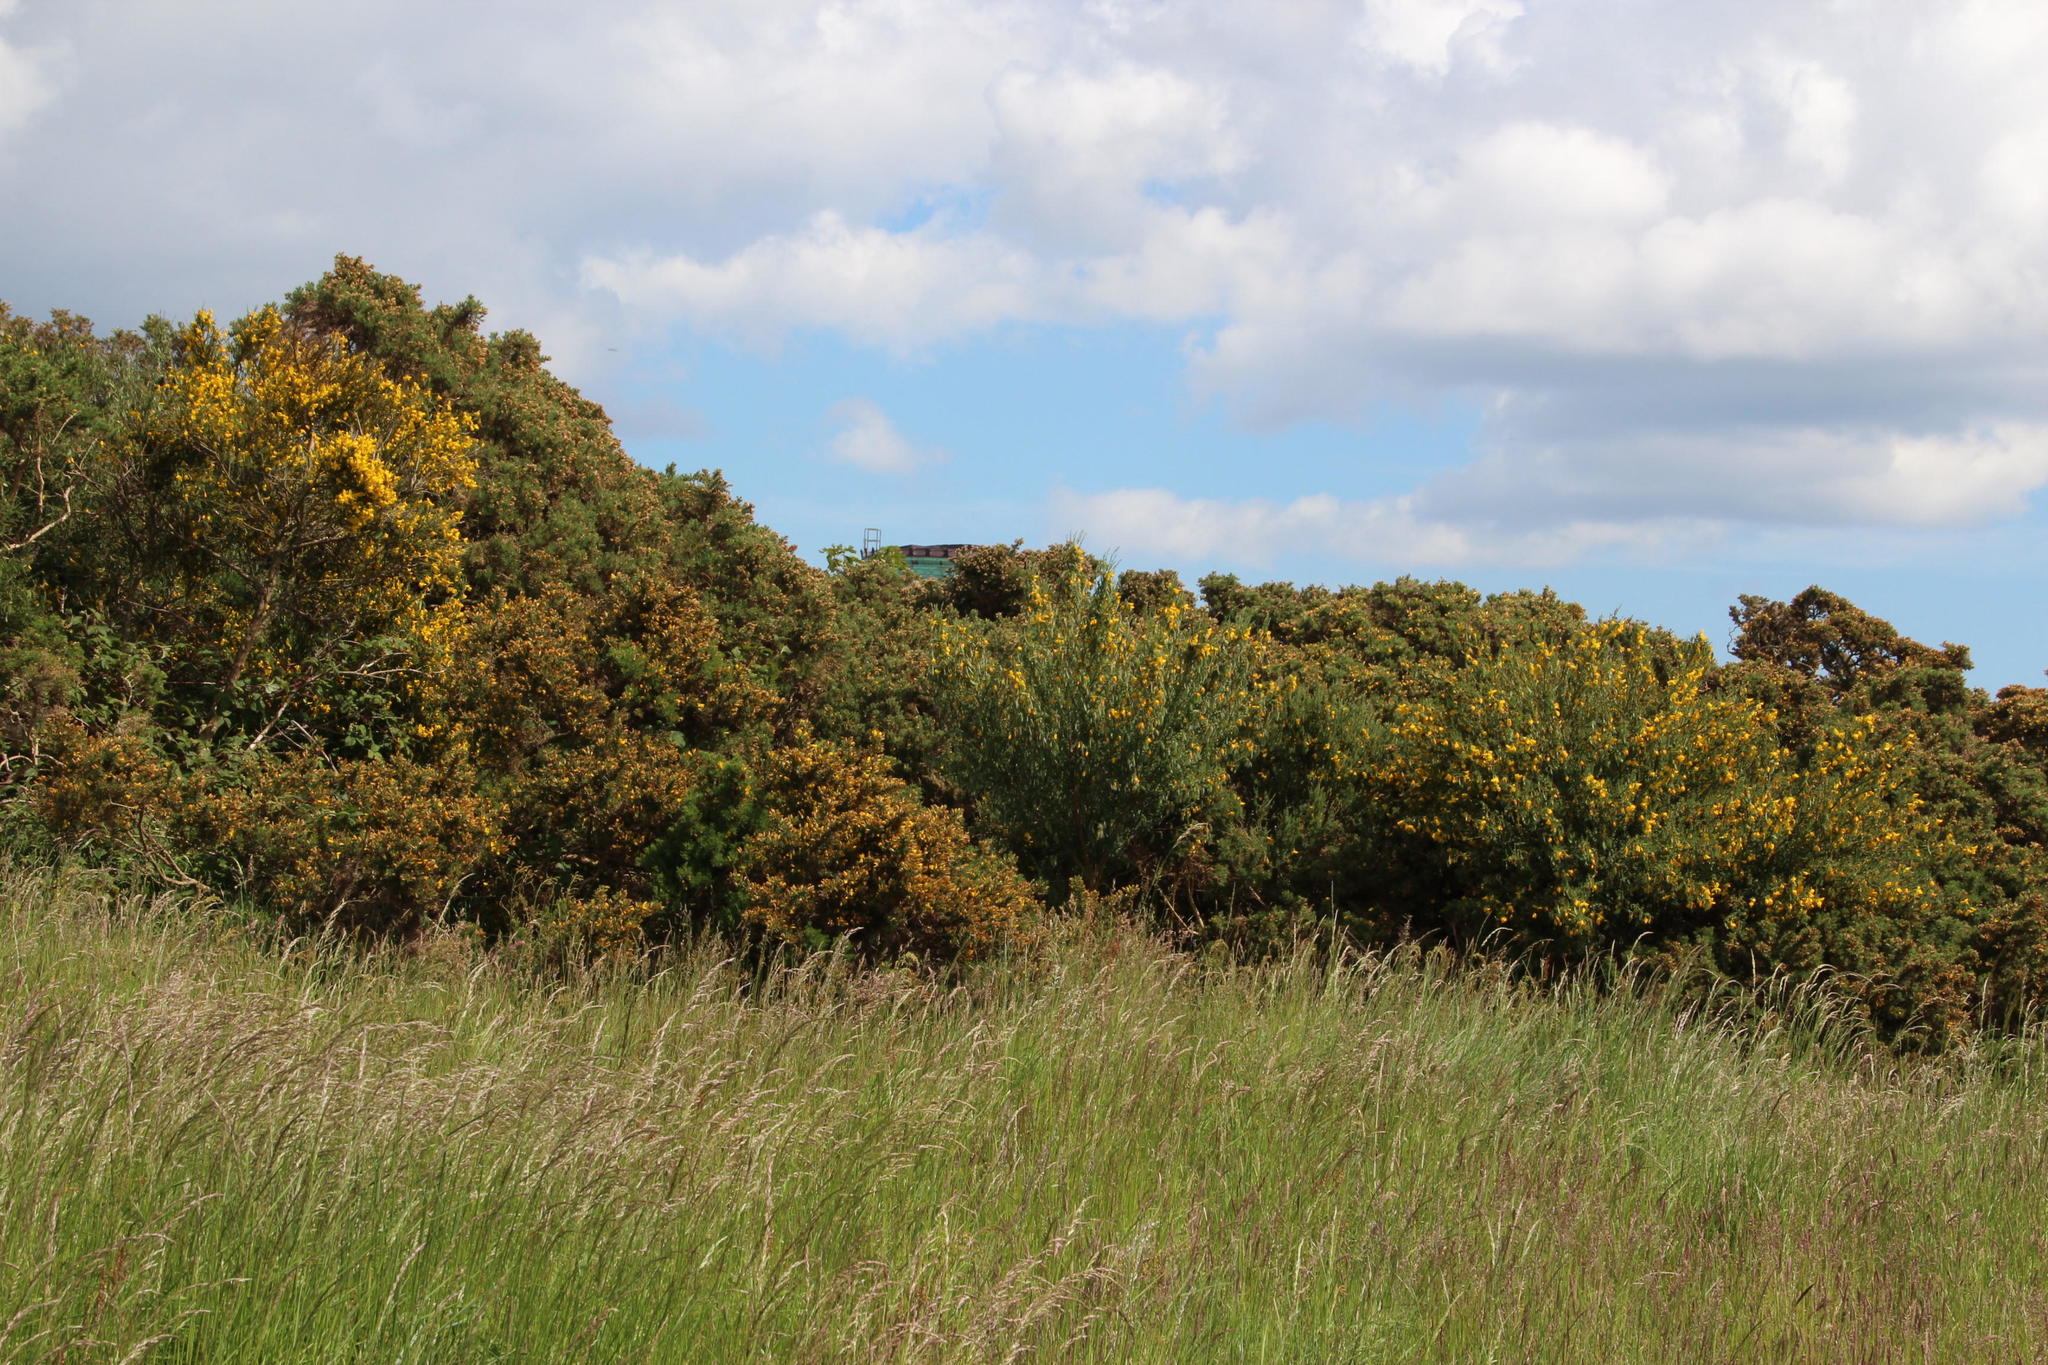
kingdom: Plantae
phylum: Tracheophyta
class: Magnoliopsida
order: Fabales
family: Fabaceae
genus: Ulex
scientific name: Ulex europaeus
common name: Common gorse
